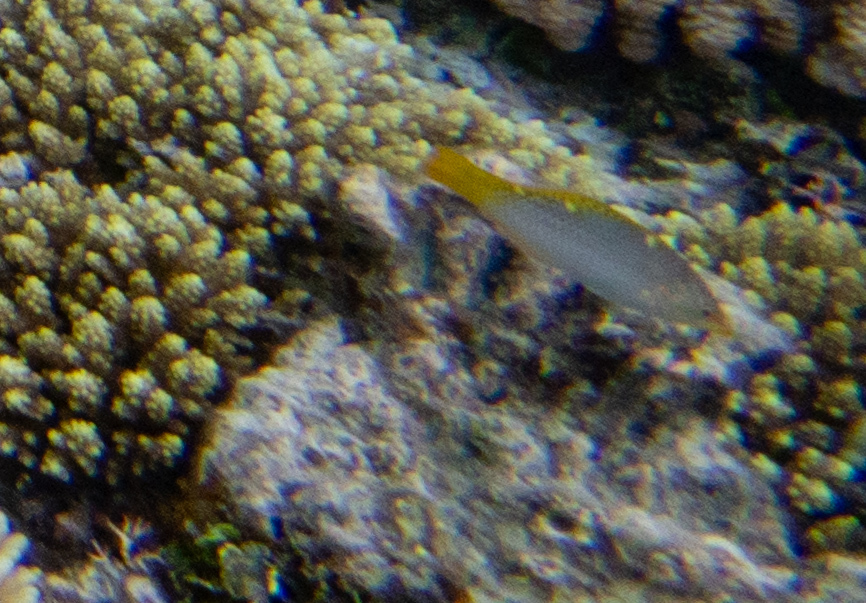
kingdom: Animalia
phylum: Chordata
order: Perciformes
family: Labridae
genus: Halichoeres
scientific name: Halichoeres hortulanus
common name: Checkerboard wrasse
